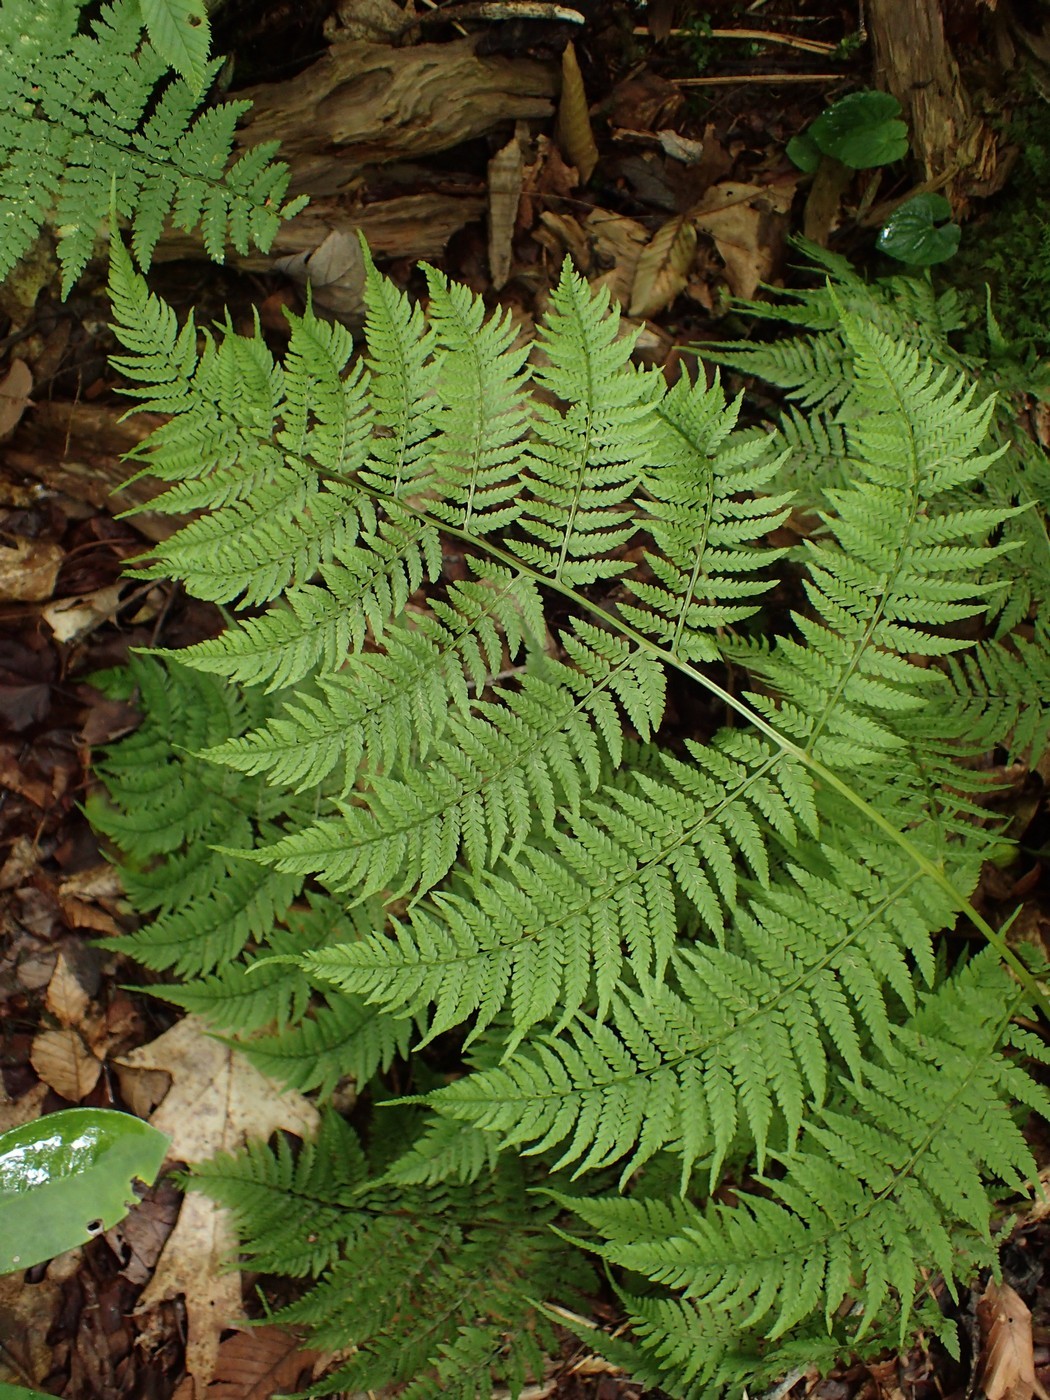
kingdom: Plantae
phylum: Tracheophyta
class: Polypodiopsida
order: Polypodiales
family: Athyriaceae
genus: Athyrium
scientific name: Athyrium asplenioides
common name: Southern lady fern
